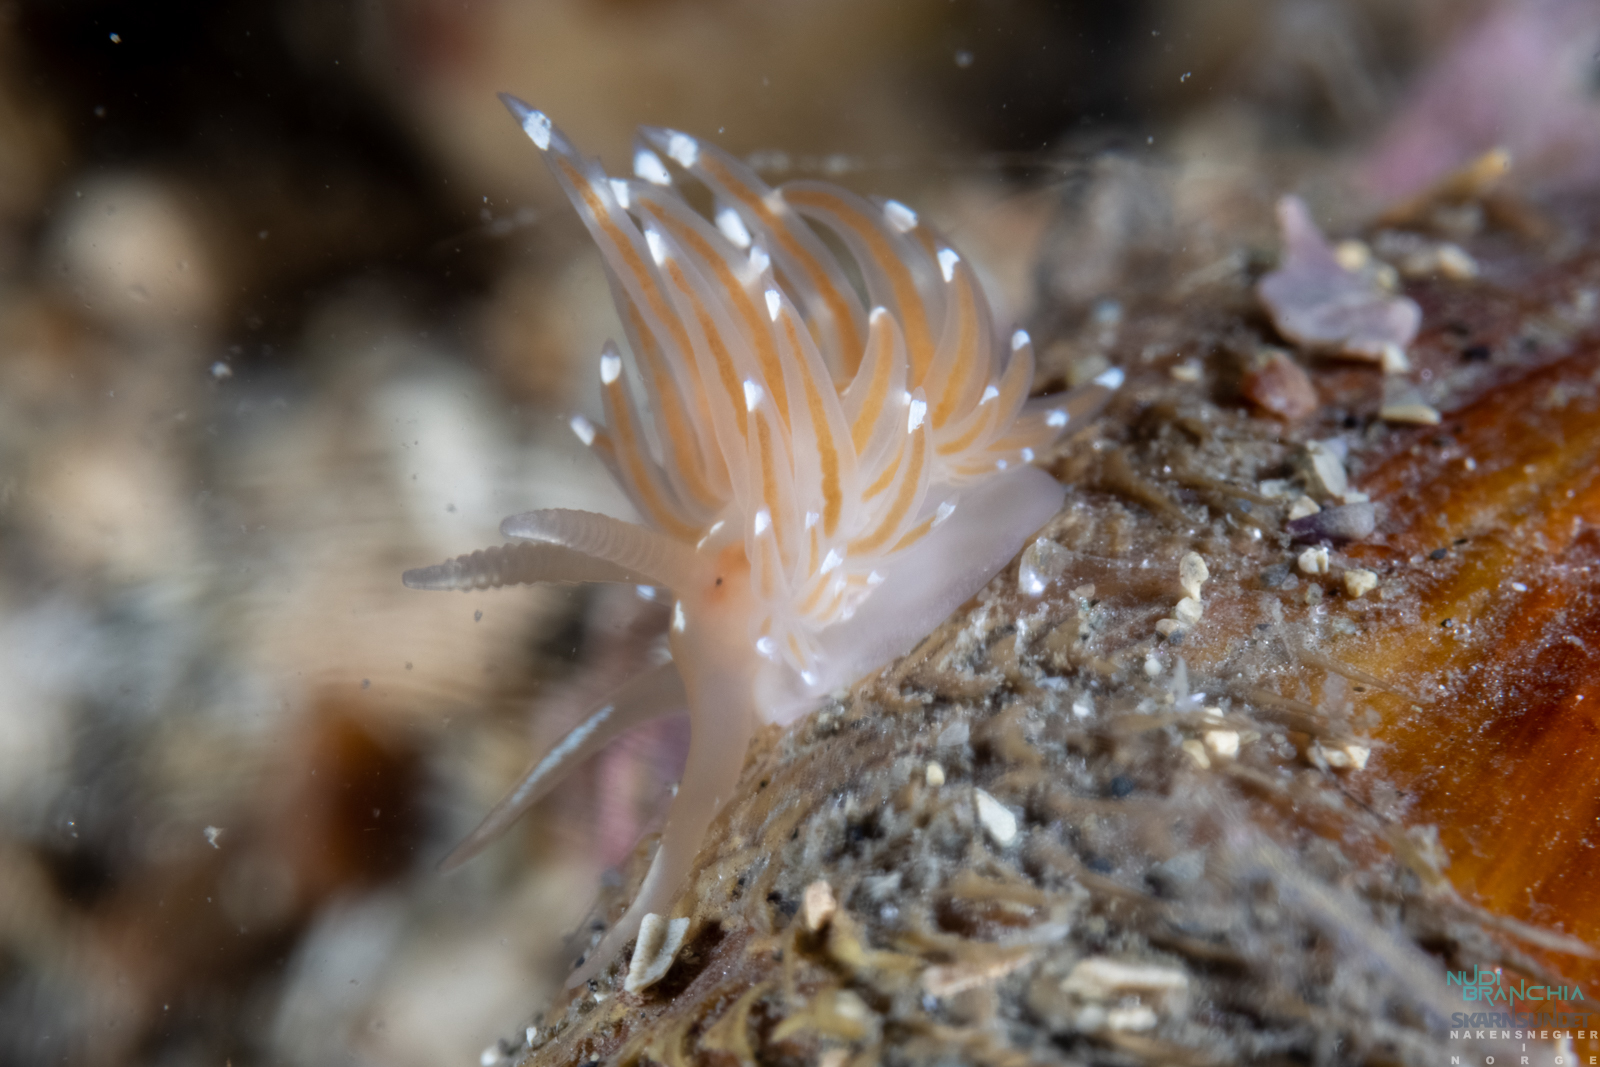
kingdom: Animalia
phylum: Mollusca
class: Gastropoda
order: Nudibranchia
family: Facelinidae
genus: Facelina
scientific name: Facelina bostoniensis
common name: Boston facelina
